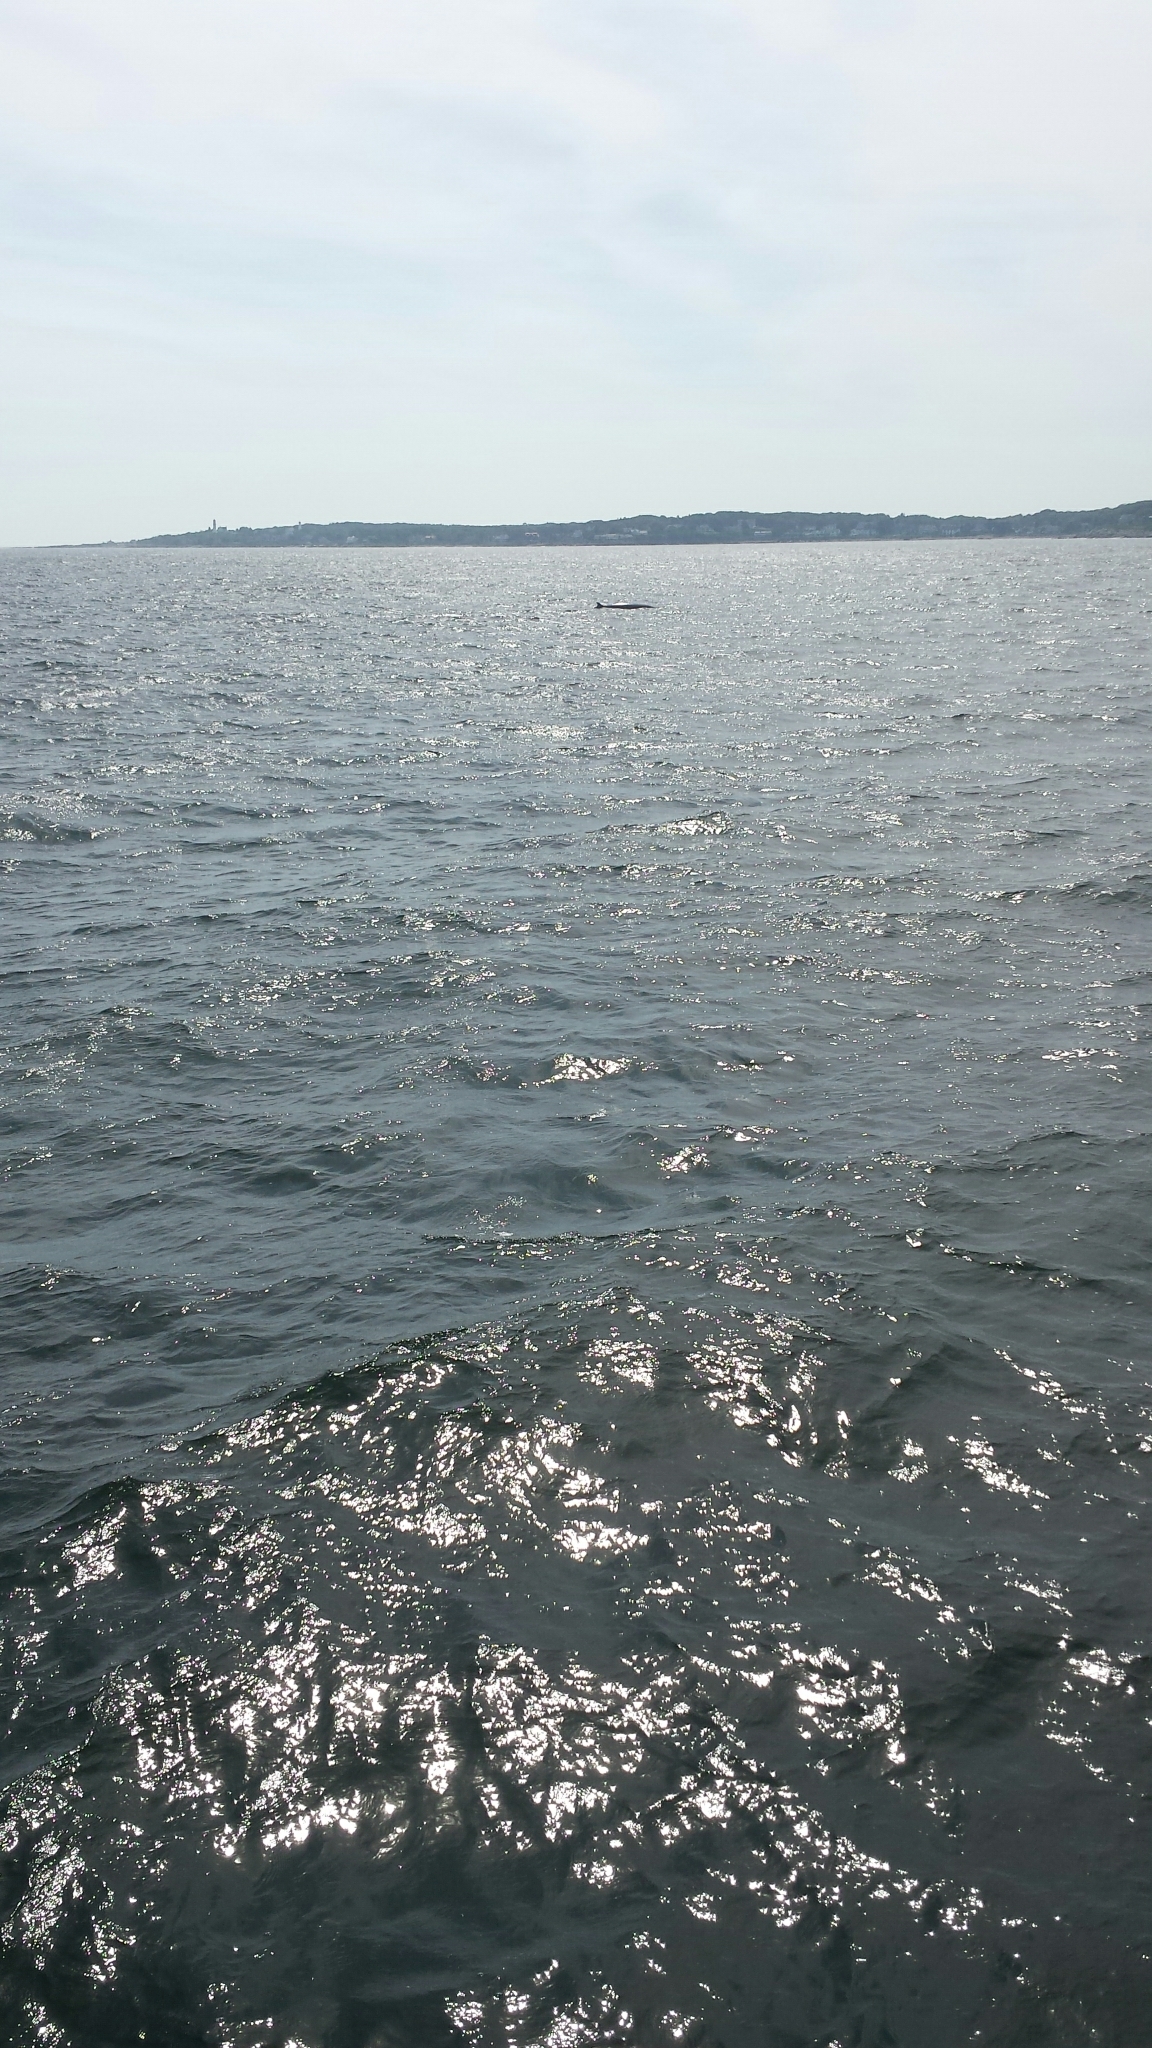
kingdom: Animalia
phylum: Chordata
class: Mammalia
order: Cetacea
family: Balaenopteridae
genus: Balaenoptera
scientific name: Balaenoptera acutorostrata
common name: Common minke whale
